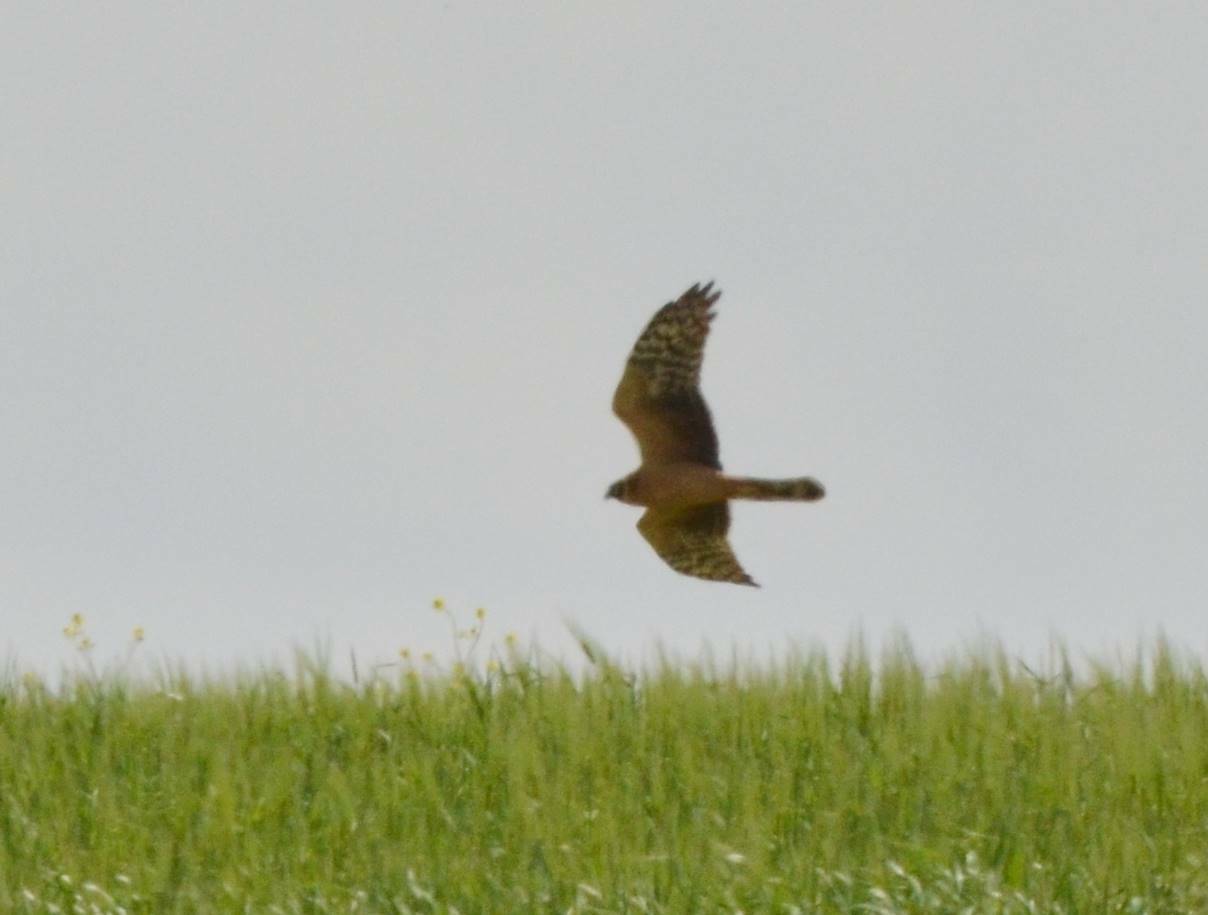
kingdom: Animalia
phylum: Chordata
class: Aves
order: Accipitriformes
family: Accipitridae
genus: Circus
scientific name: Circus macrourus
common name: Pallid harrier
